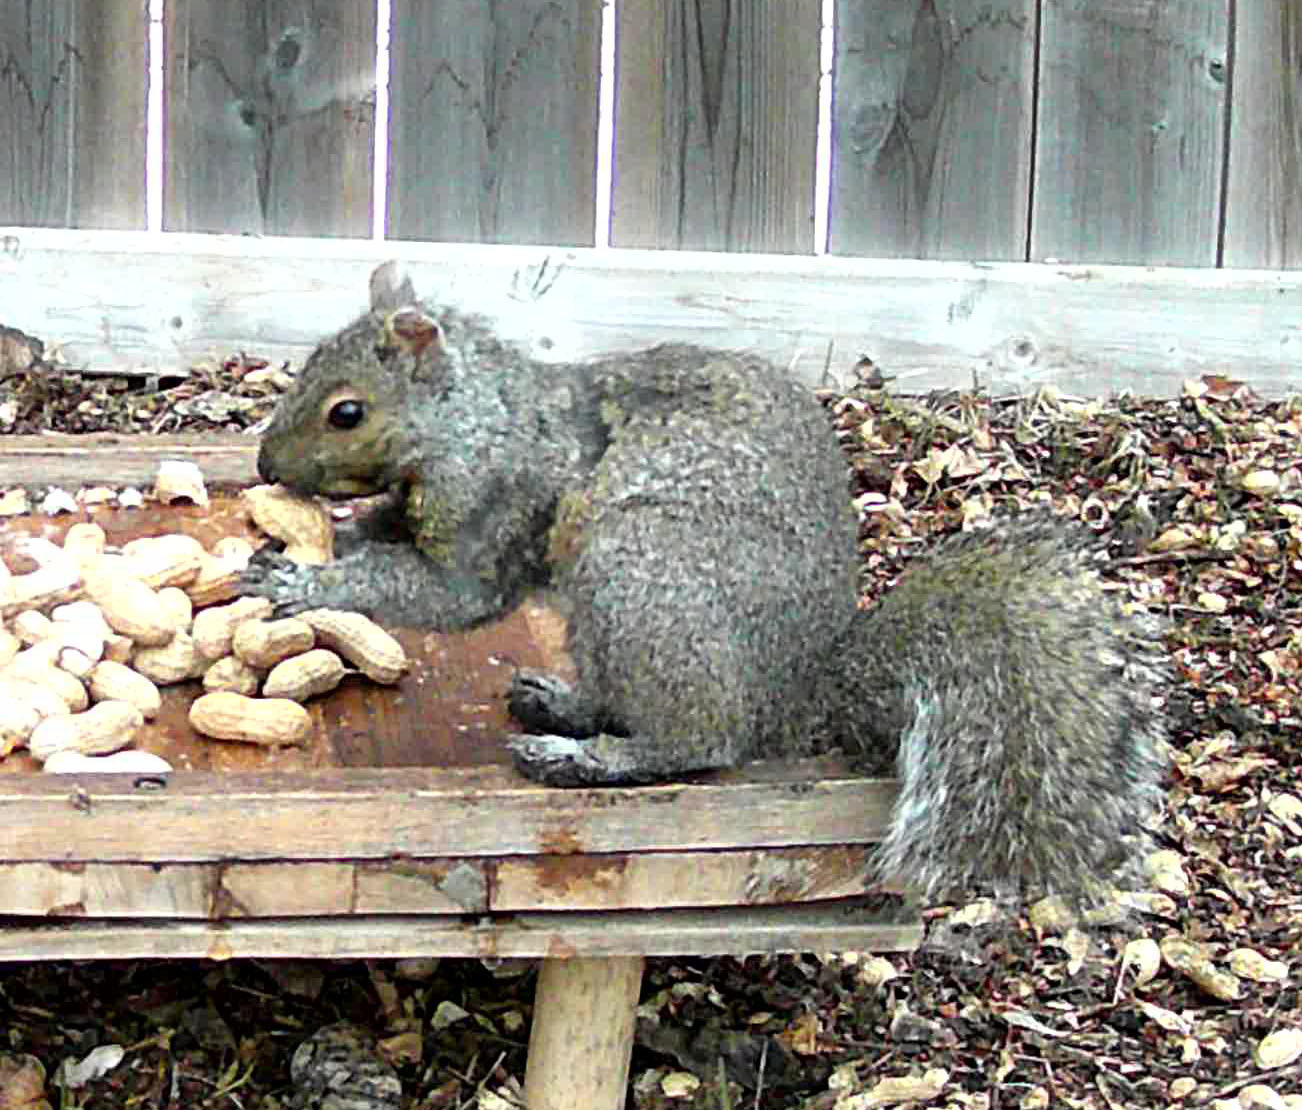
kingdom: Animalia
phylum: Chordata
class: Mammalia
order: Rodentia
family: Sciuridae
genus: Sciurus
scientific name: Sciurus carolinensis
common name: Eastern gray squirrel
